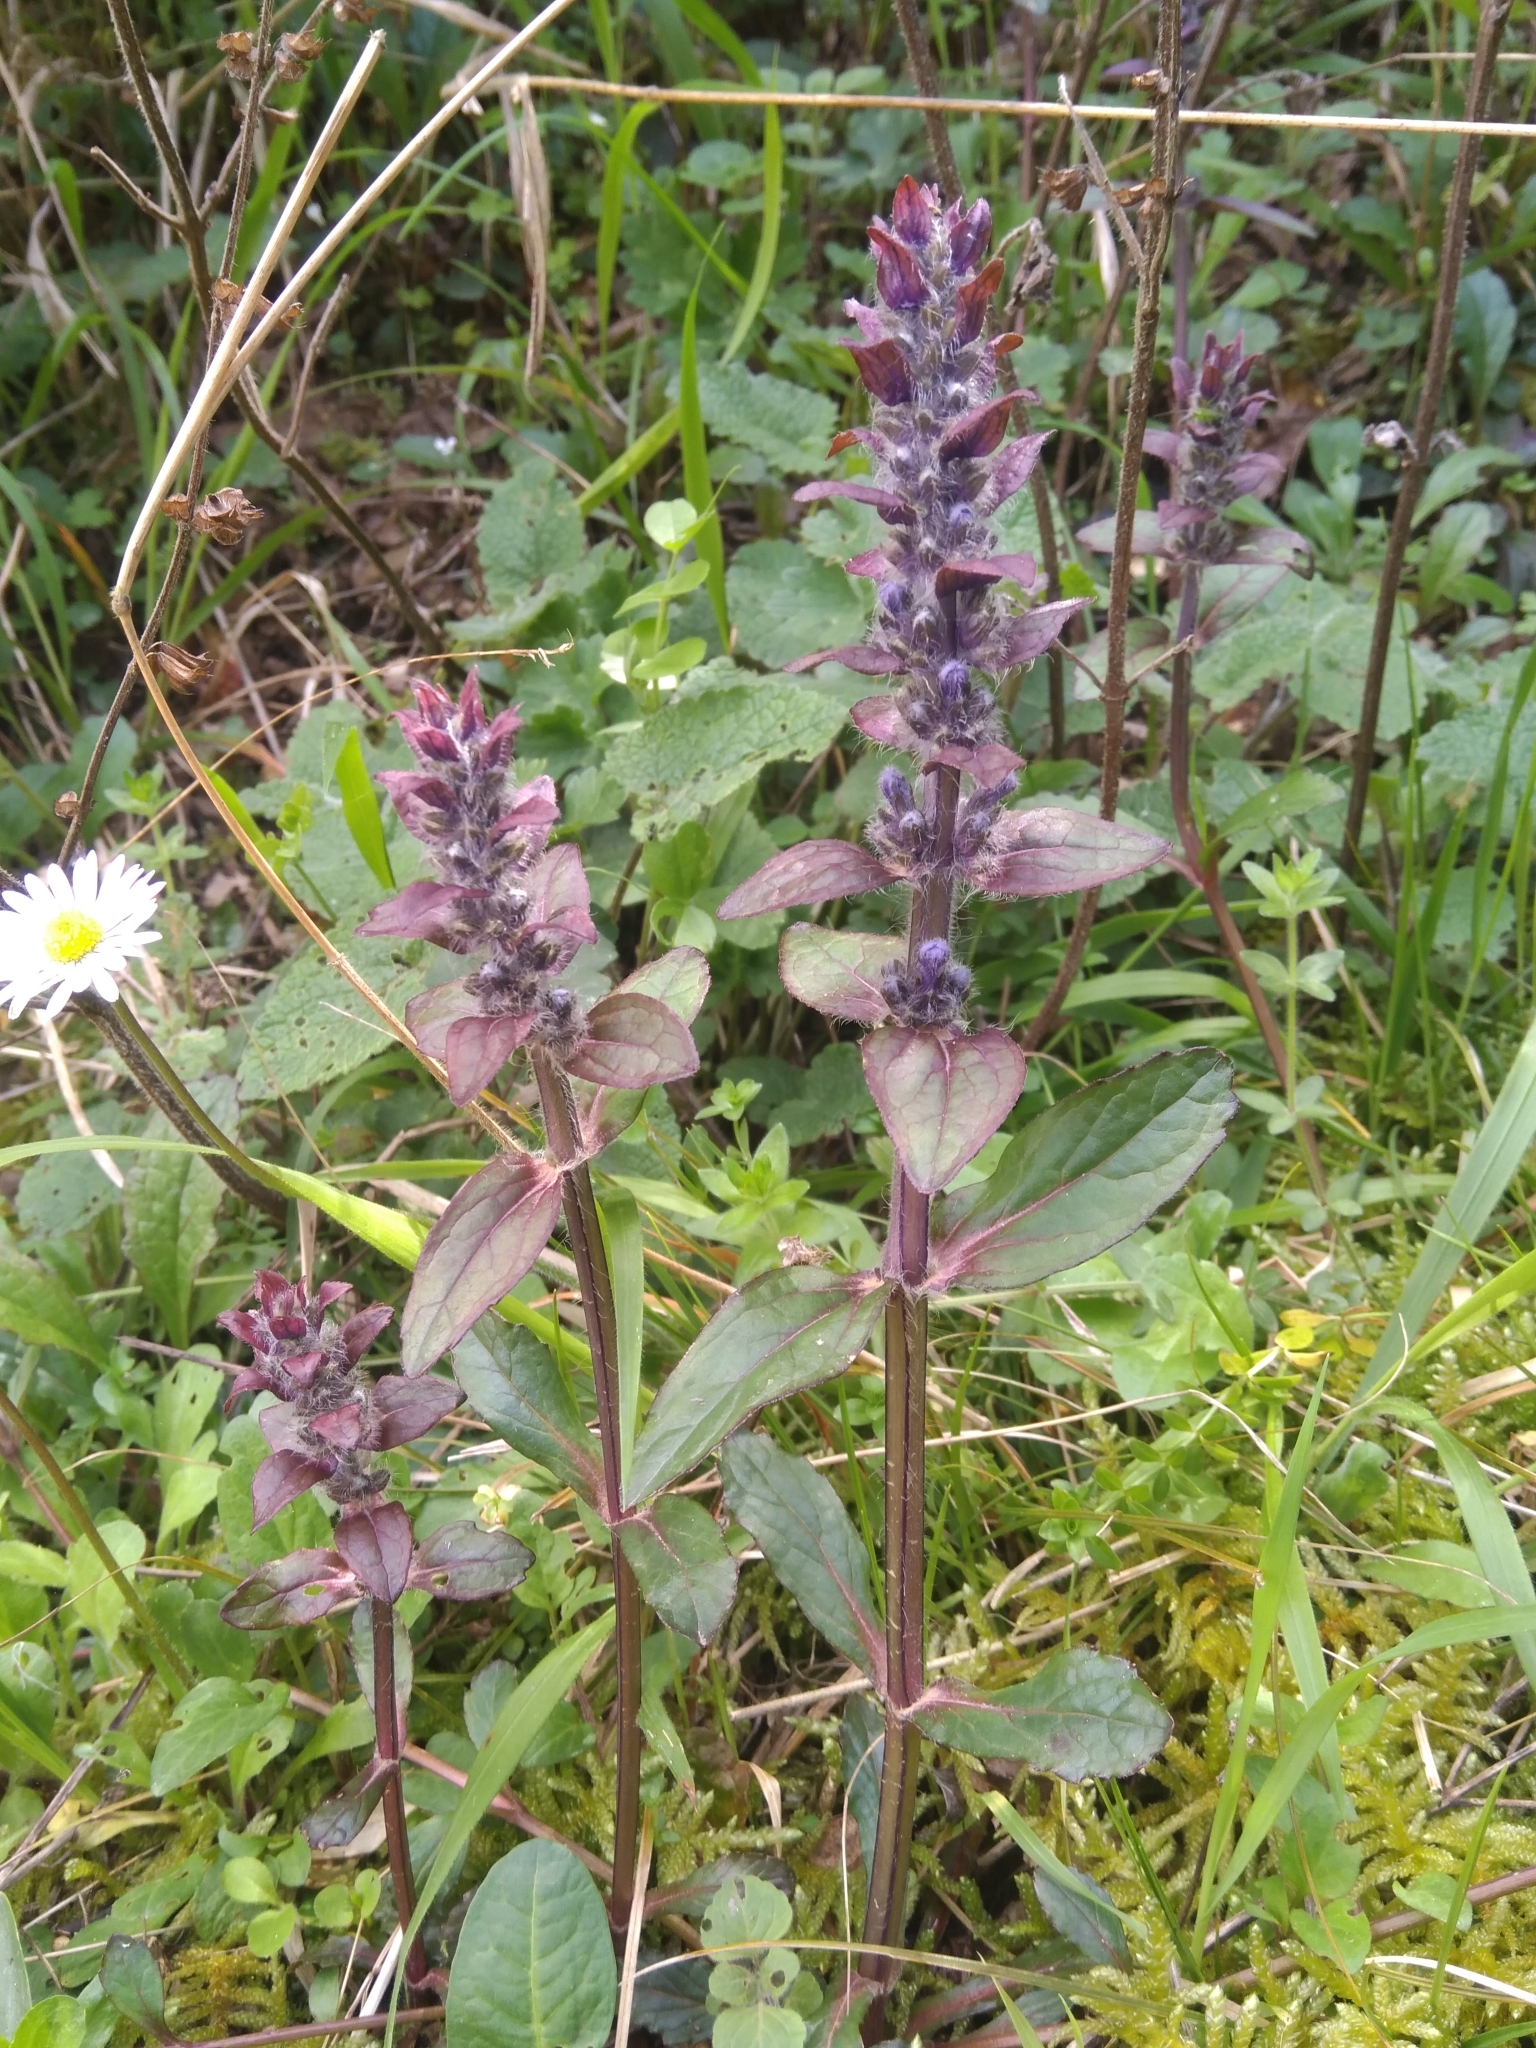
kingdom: Plantae
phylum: Tracheophyta
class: Magnoliopsida
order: Lamiales
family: Lamiaceae
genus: Ajuga
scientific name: Ajuga reptans
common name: Bugle
